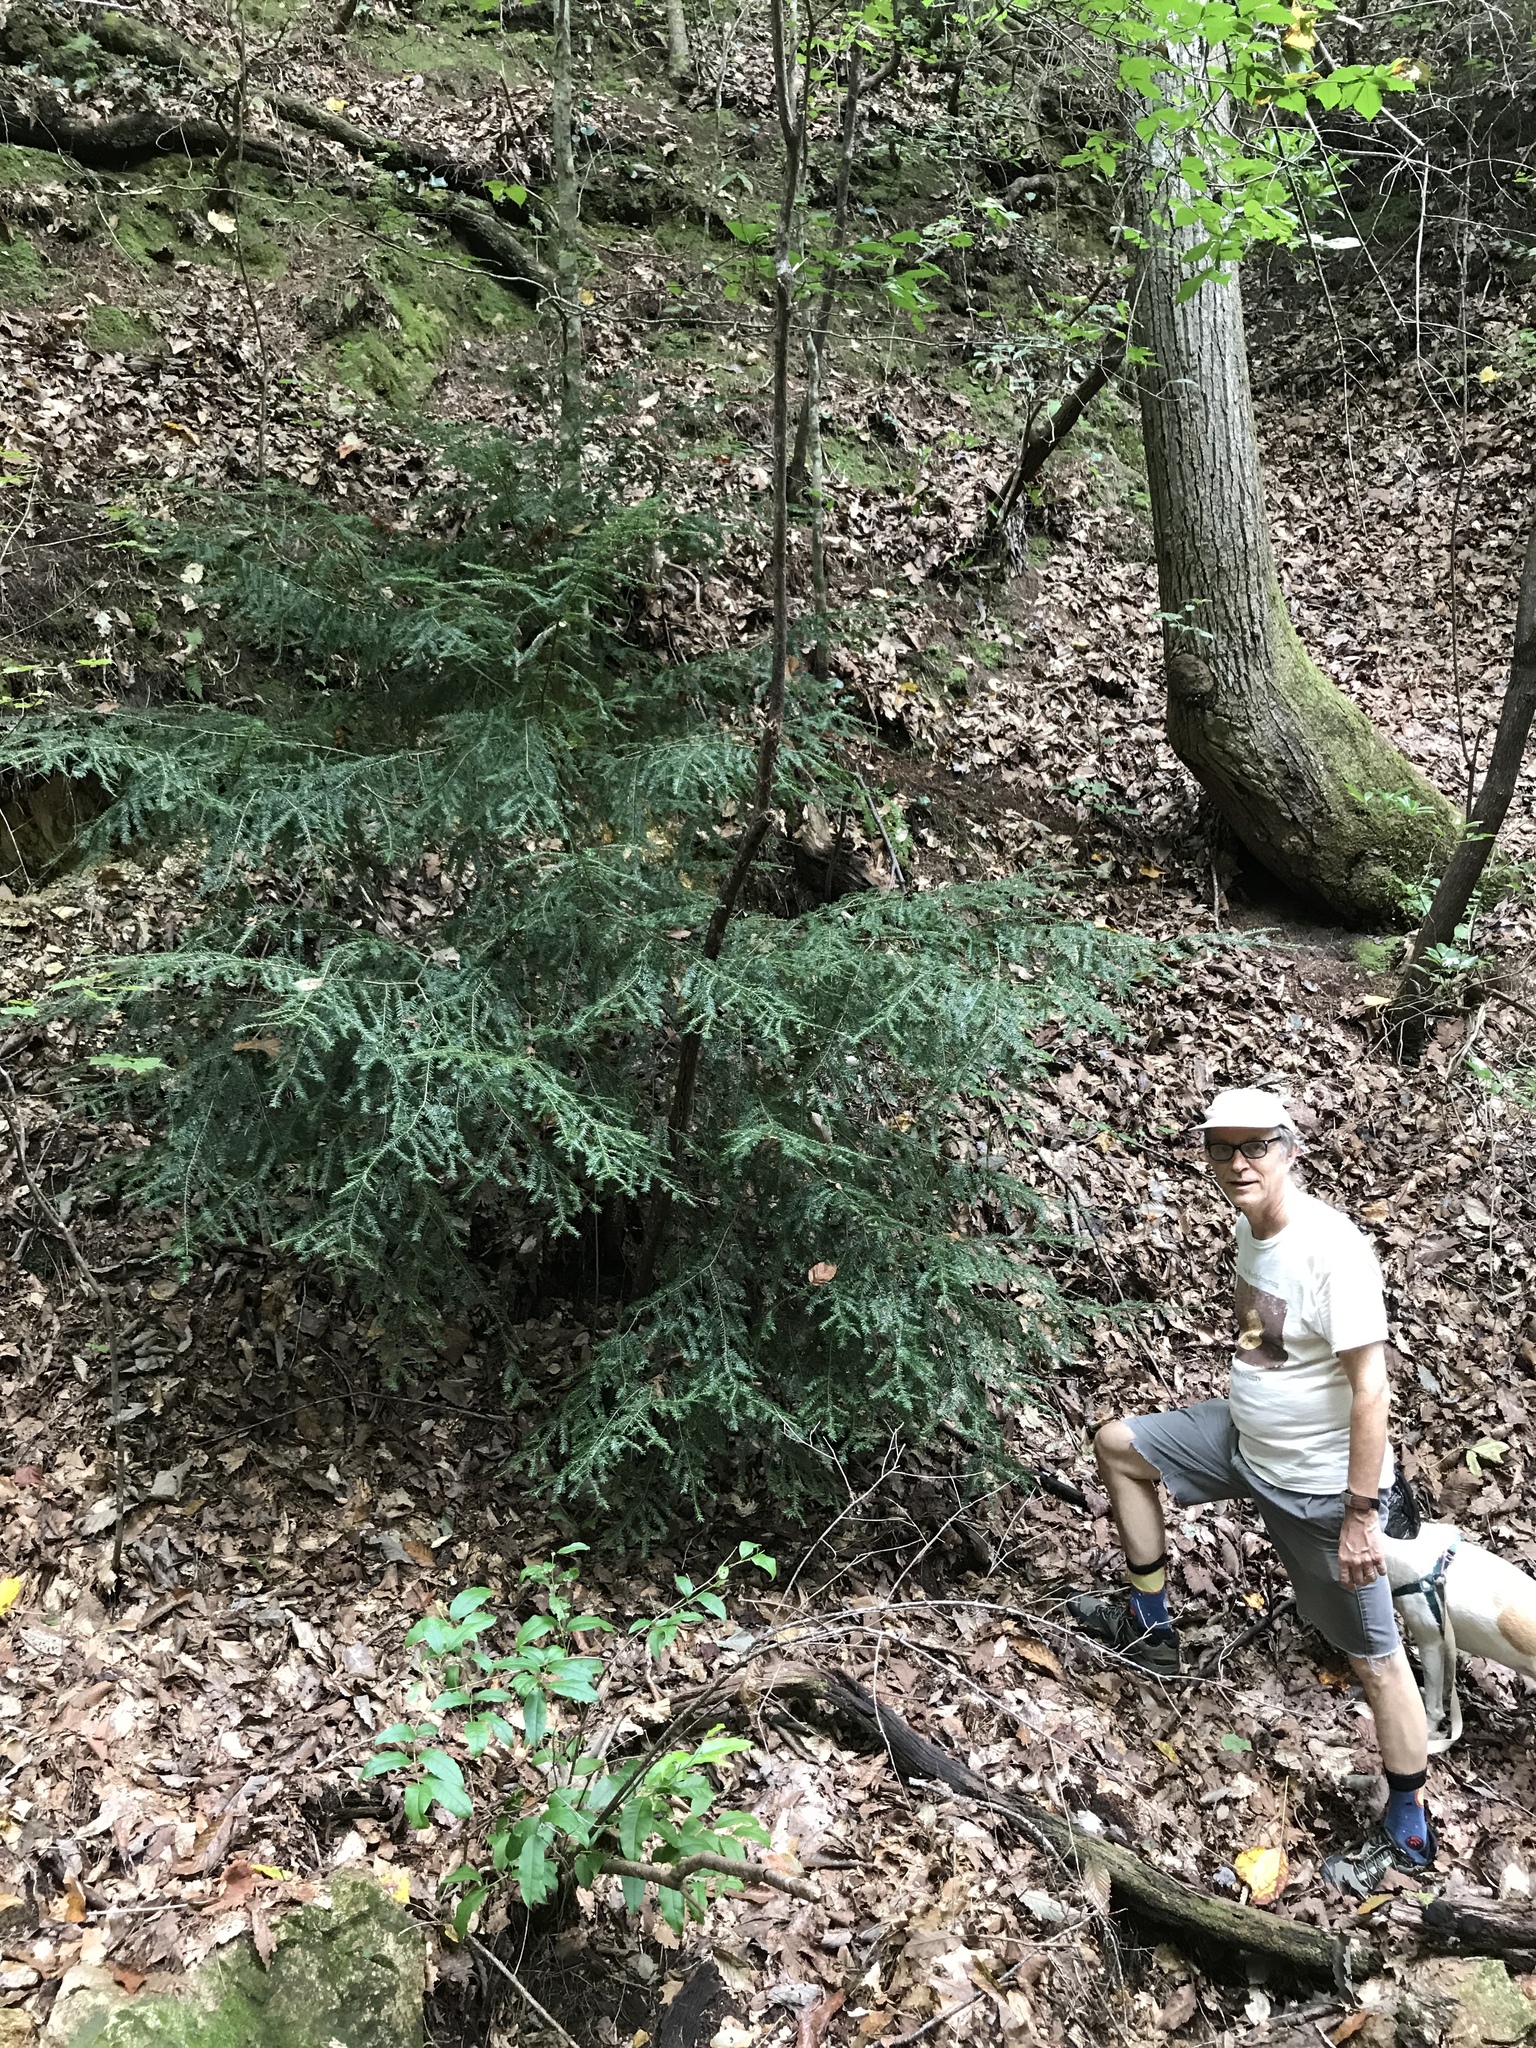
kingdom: Plantae
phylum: Tracheophyta
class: Pinopsida
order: Pinales
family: Pinaceae
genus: Tsuga
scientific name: Tsuga canadensis
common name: Eastern hemlock
